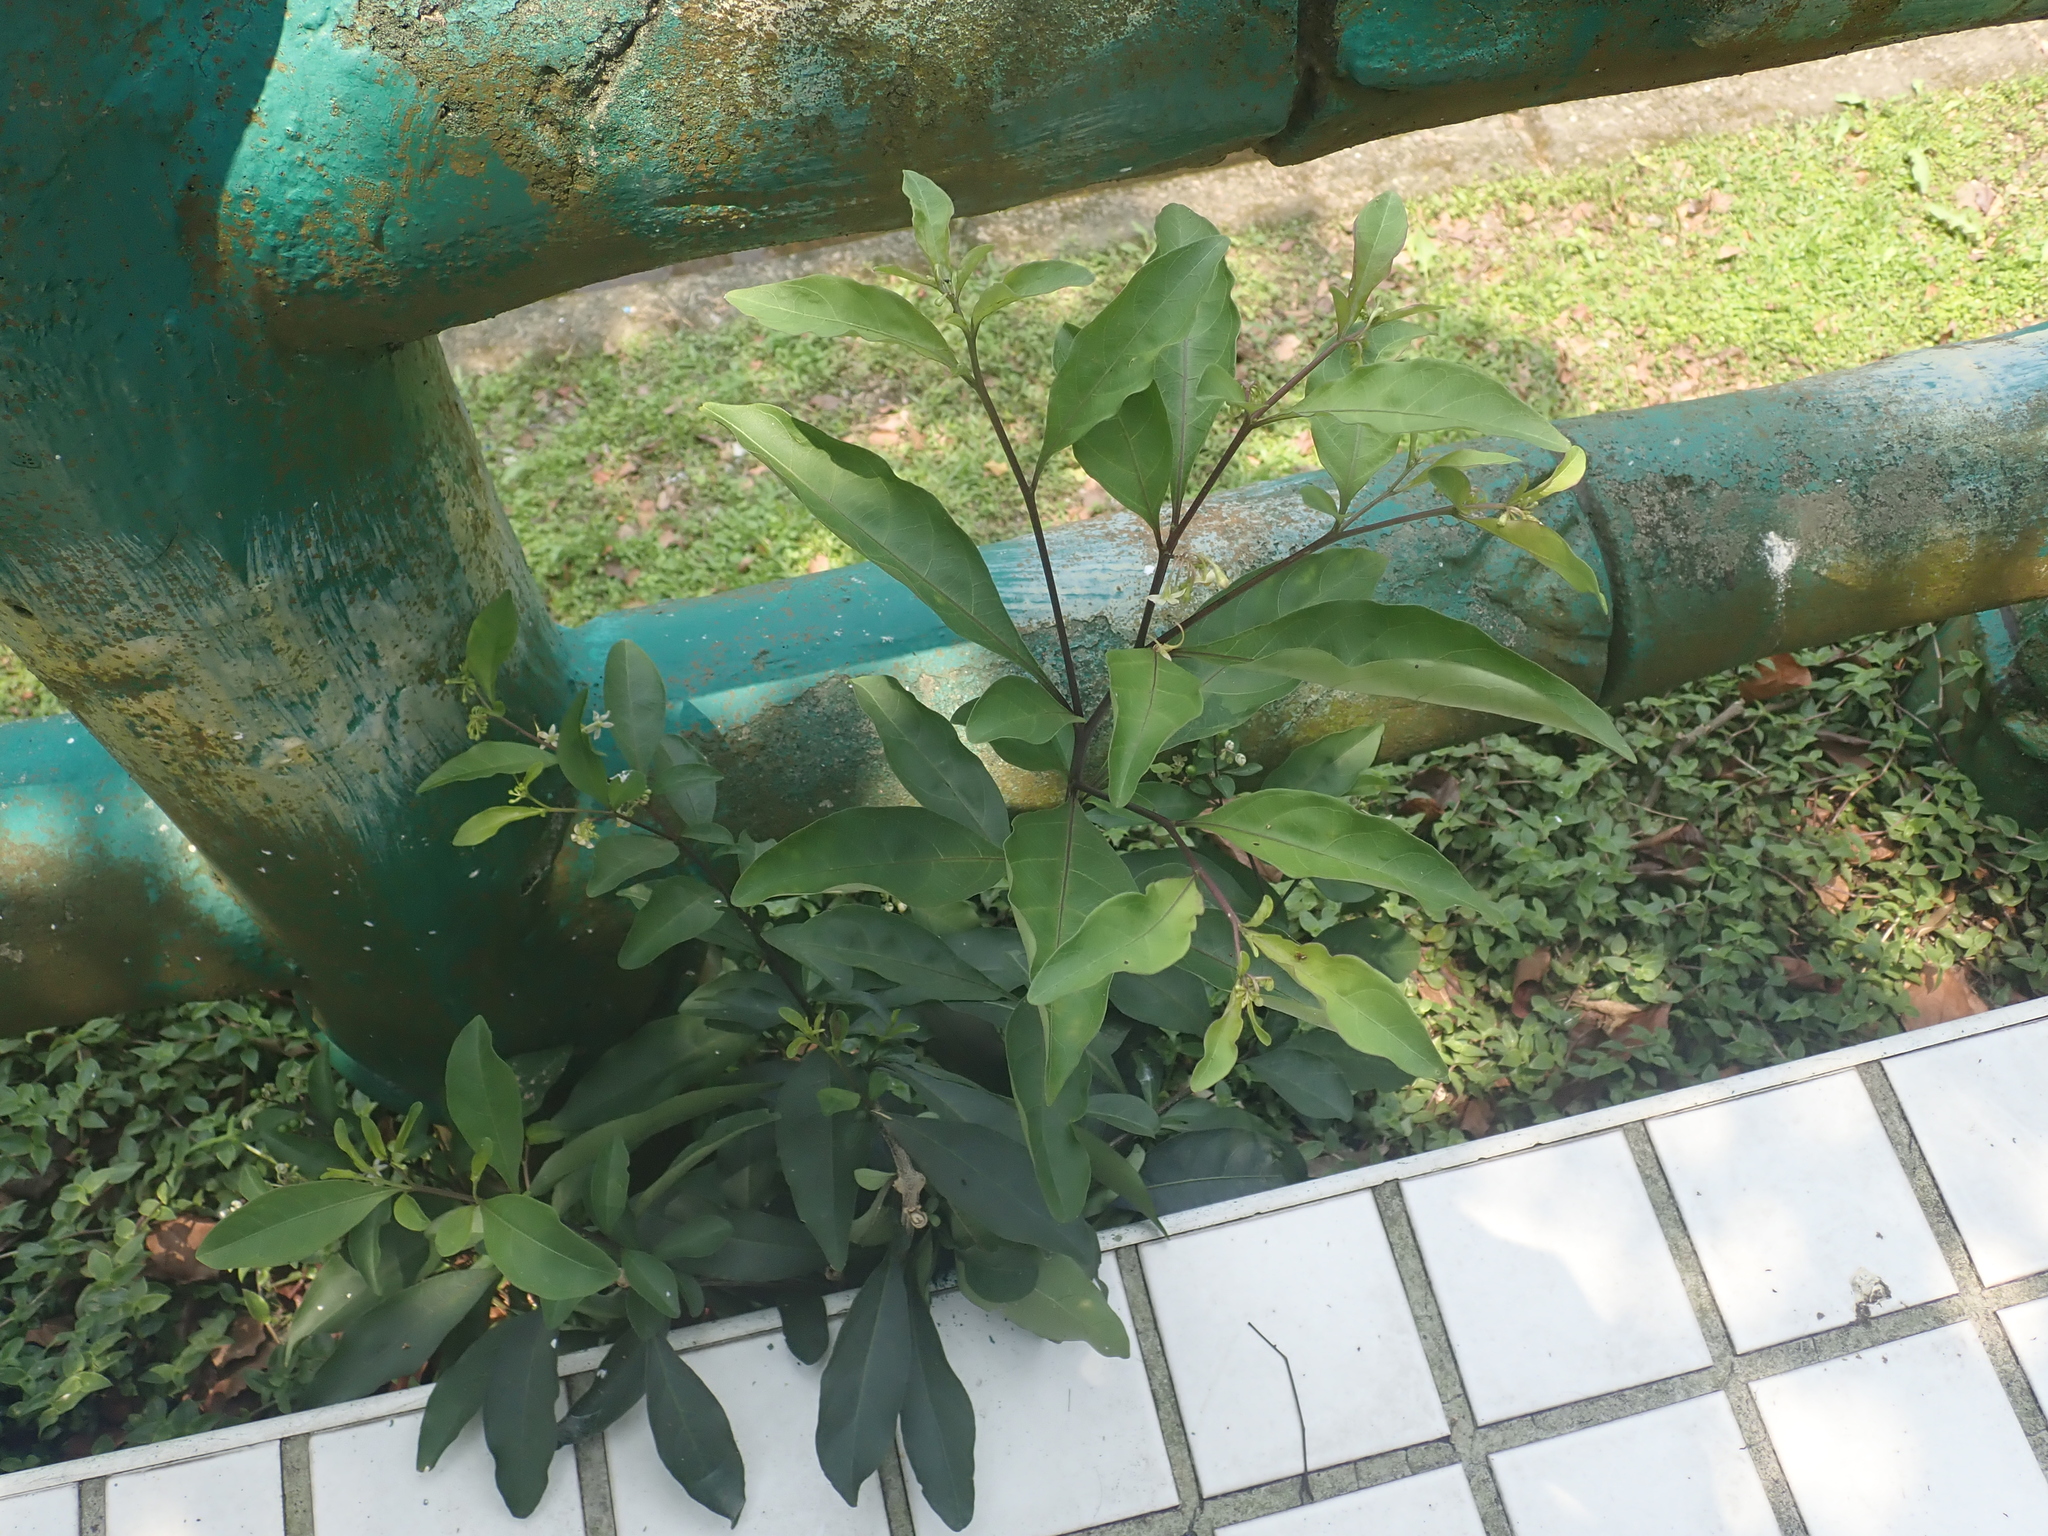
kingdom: Plantae
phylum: Tracheophyta
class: Magnoliopsida
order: Solanales
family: Solanaceae
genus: Solanum
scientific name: Solanum diphyllum
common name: Twoleaf nightshade
